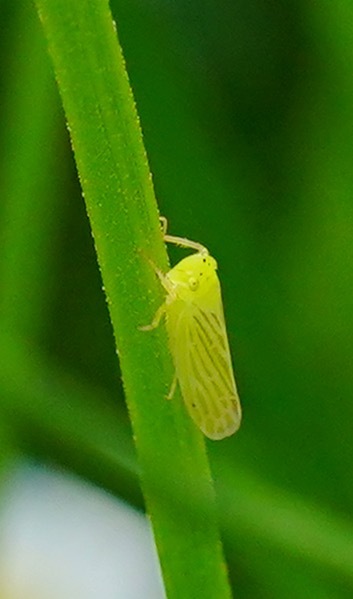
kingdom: Animalia
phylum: Arthropoda
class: Insecta
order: Hemiptera
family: Cicadellidae
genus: Pagaronia
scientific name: Pagaronia confusa
